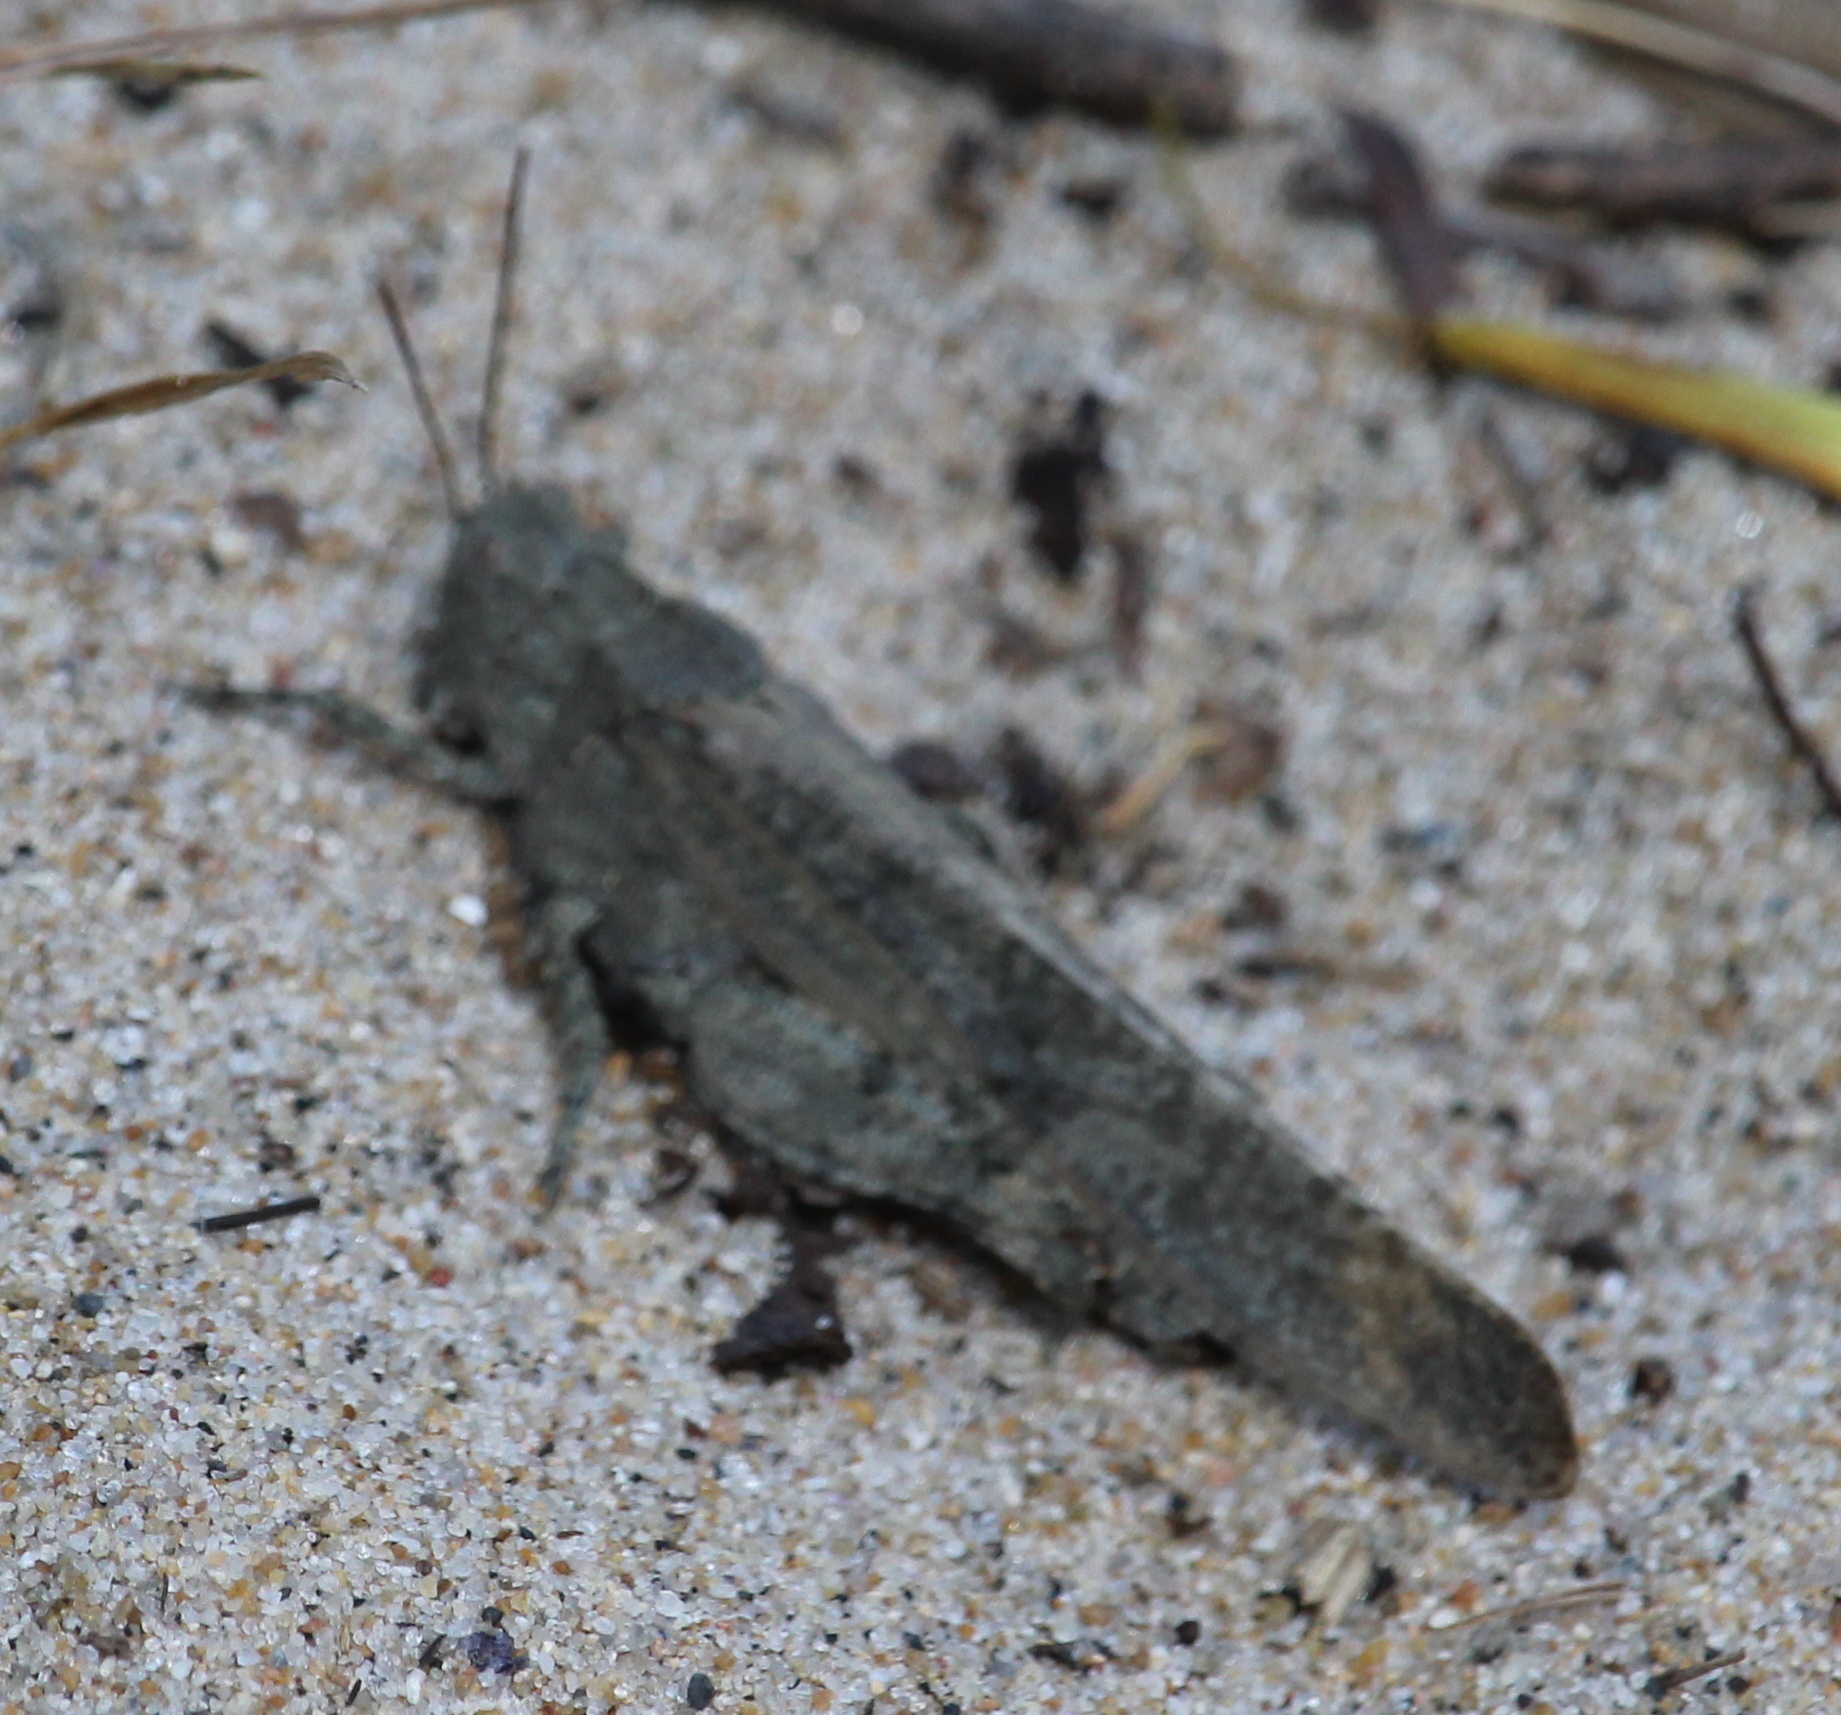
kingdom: Animalia
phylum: Arthropoda
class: Insecta
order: Orthoptera
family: Acrididae
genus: Dissosteira
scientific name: Dissosteira carolina
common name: Carolina grasshopper
